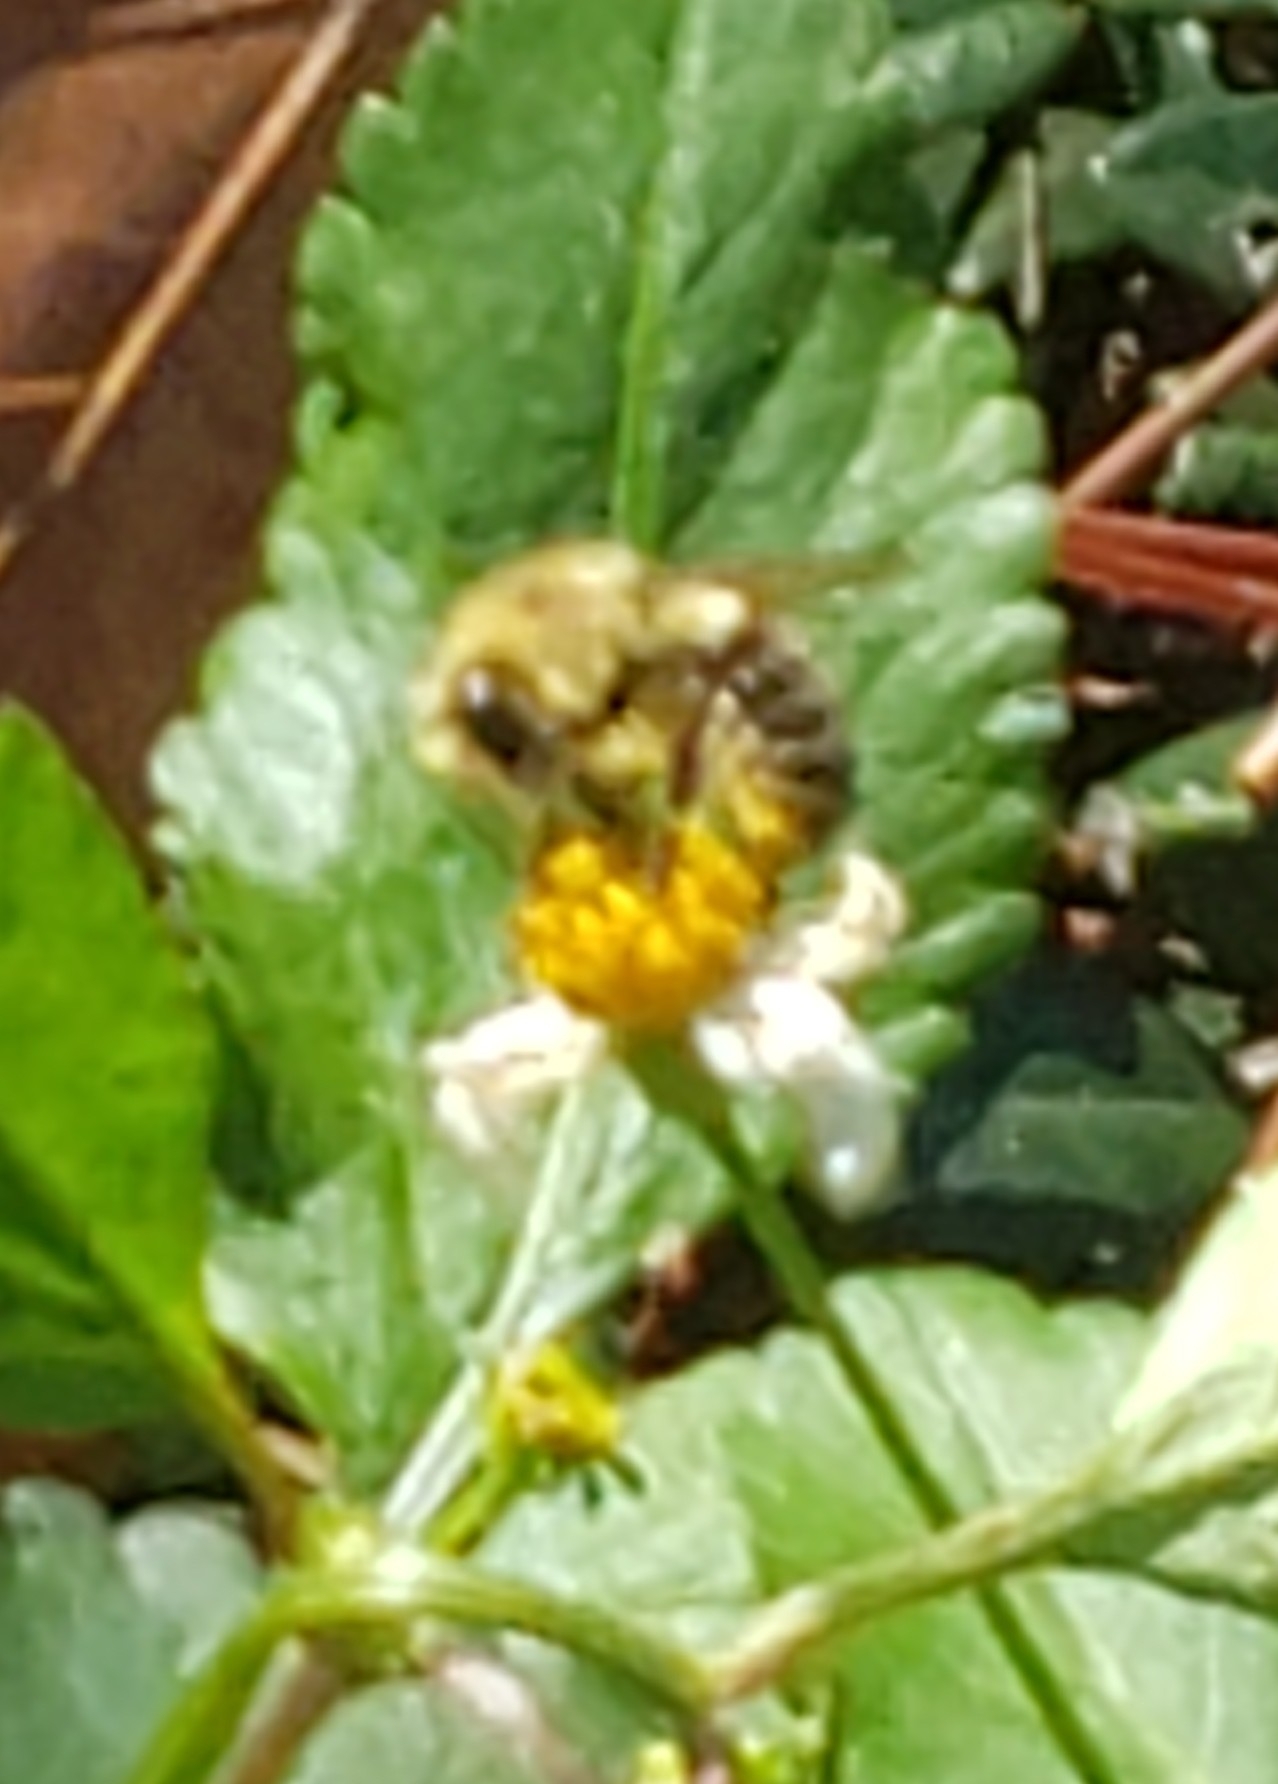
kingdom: Animalia
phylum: Arthropoda
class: Insecta
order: Hymenoptera
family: Apidae
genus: Bombus
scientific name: Bombus impatiens
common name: Common eastern bumble bee
